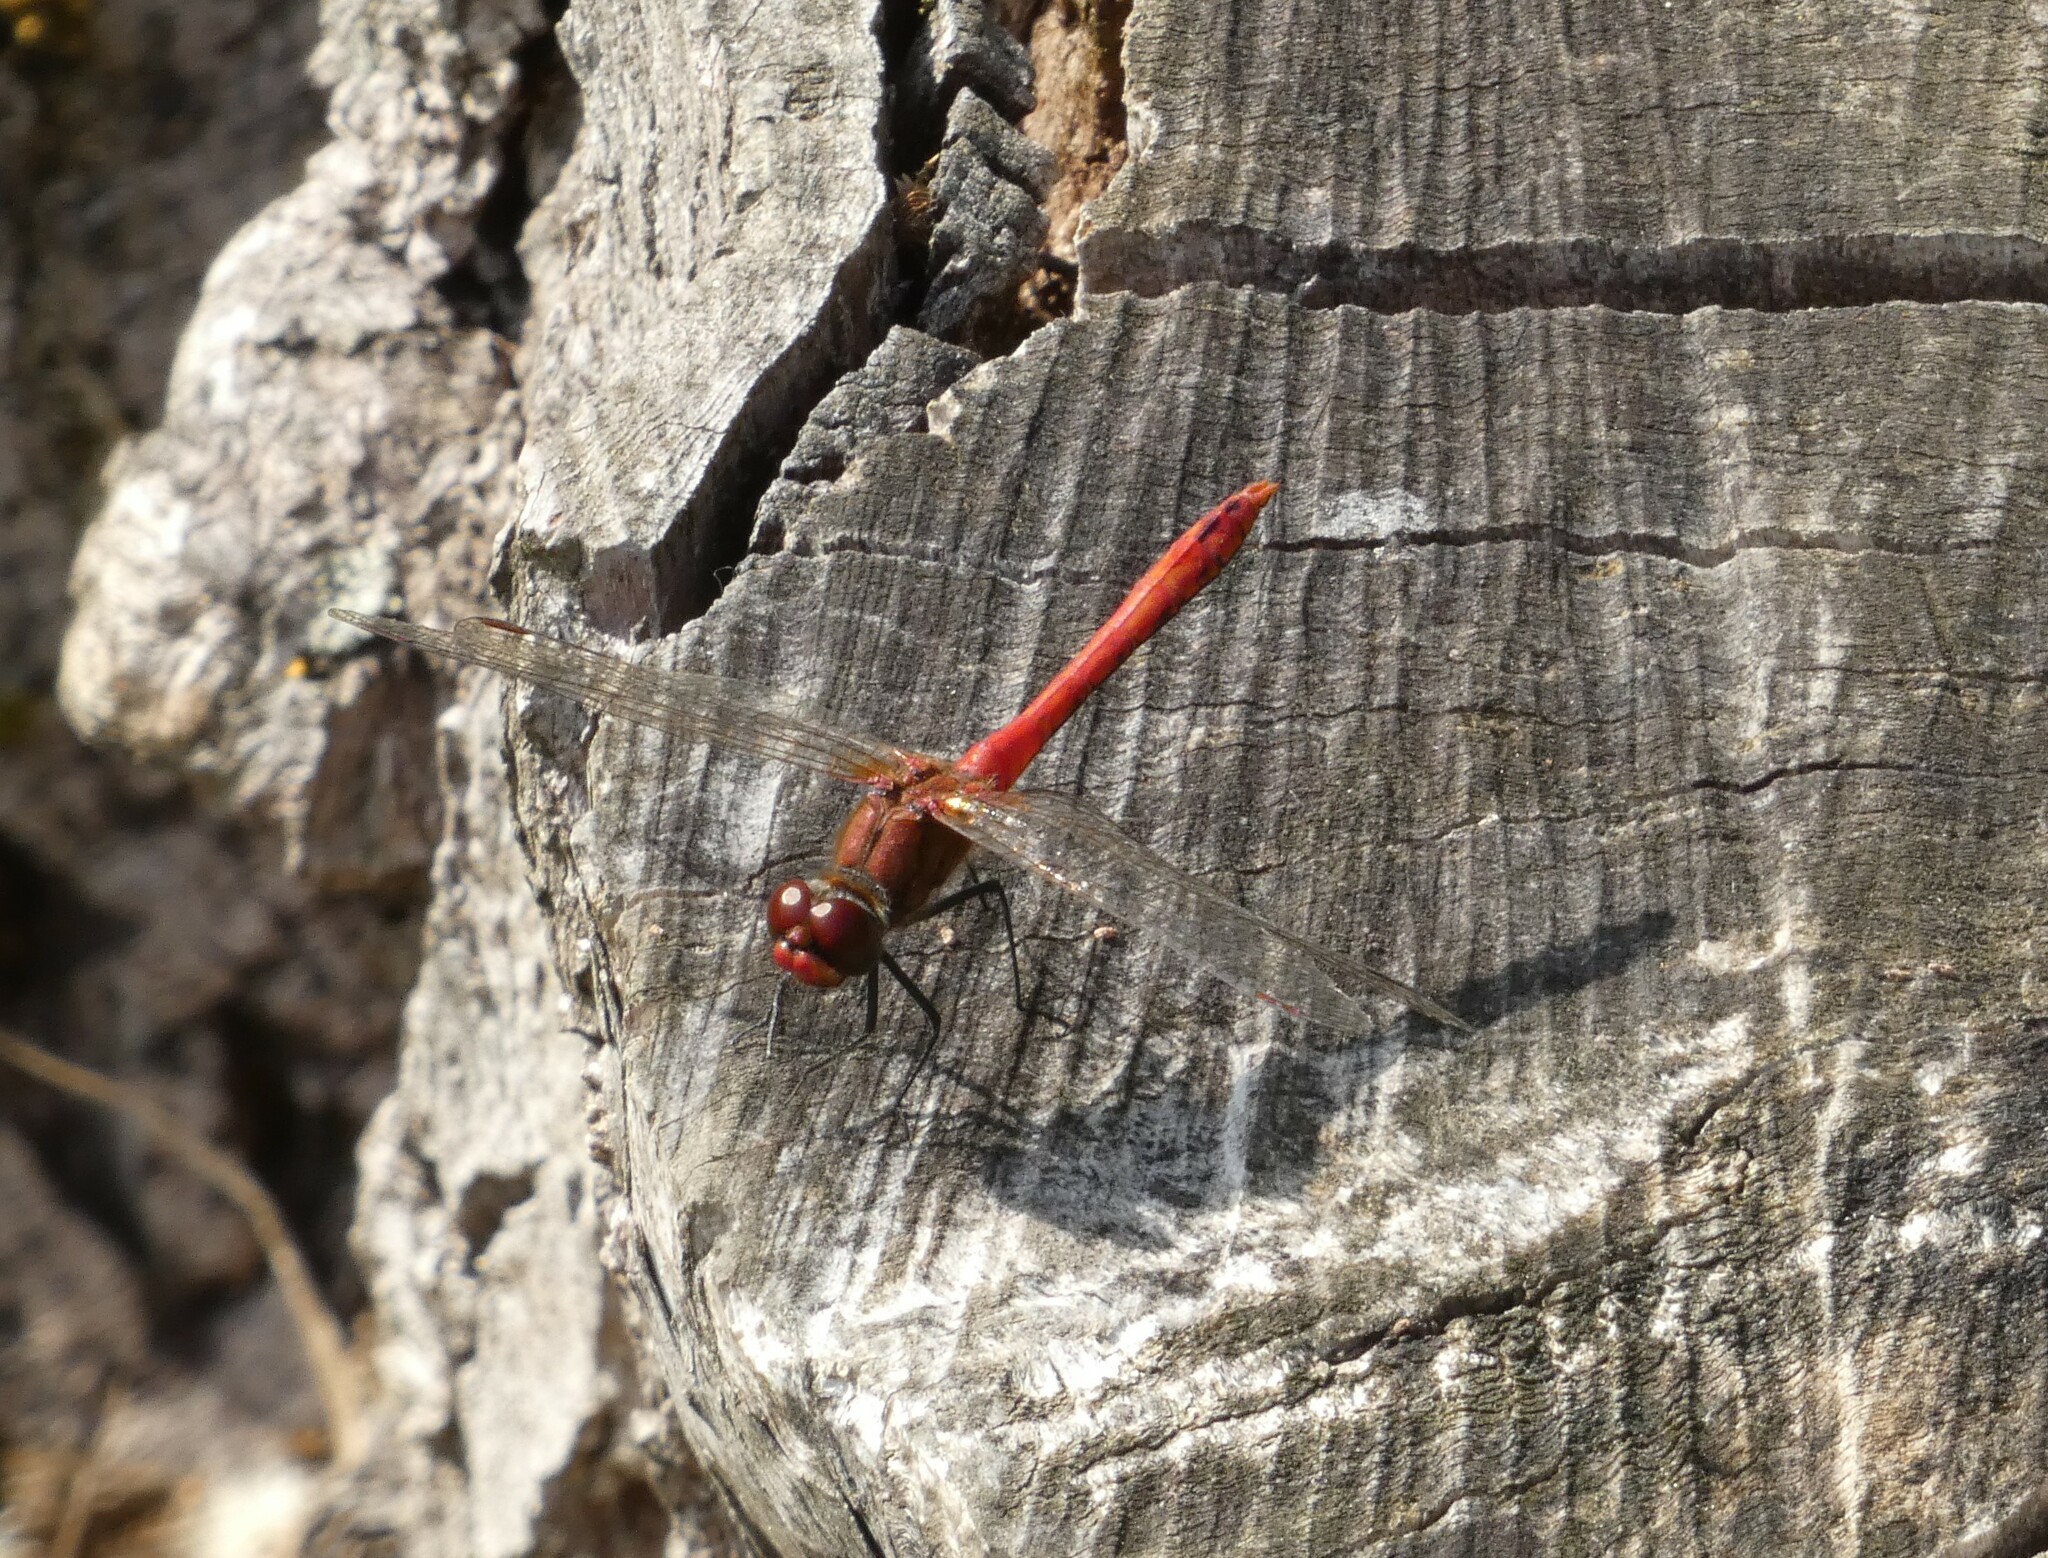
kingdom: Animalia
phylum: Arthropoda
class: Insecta
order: Odonata
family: Libellulidae
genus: Sympetrum
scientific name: Sympetrum sanguineum
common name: Ruddy darter
